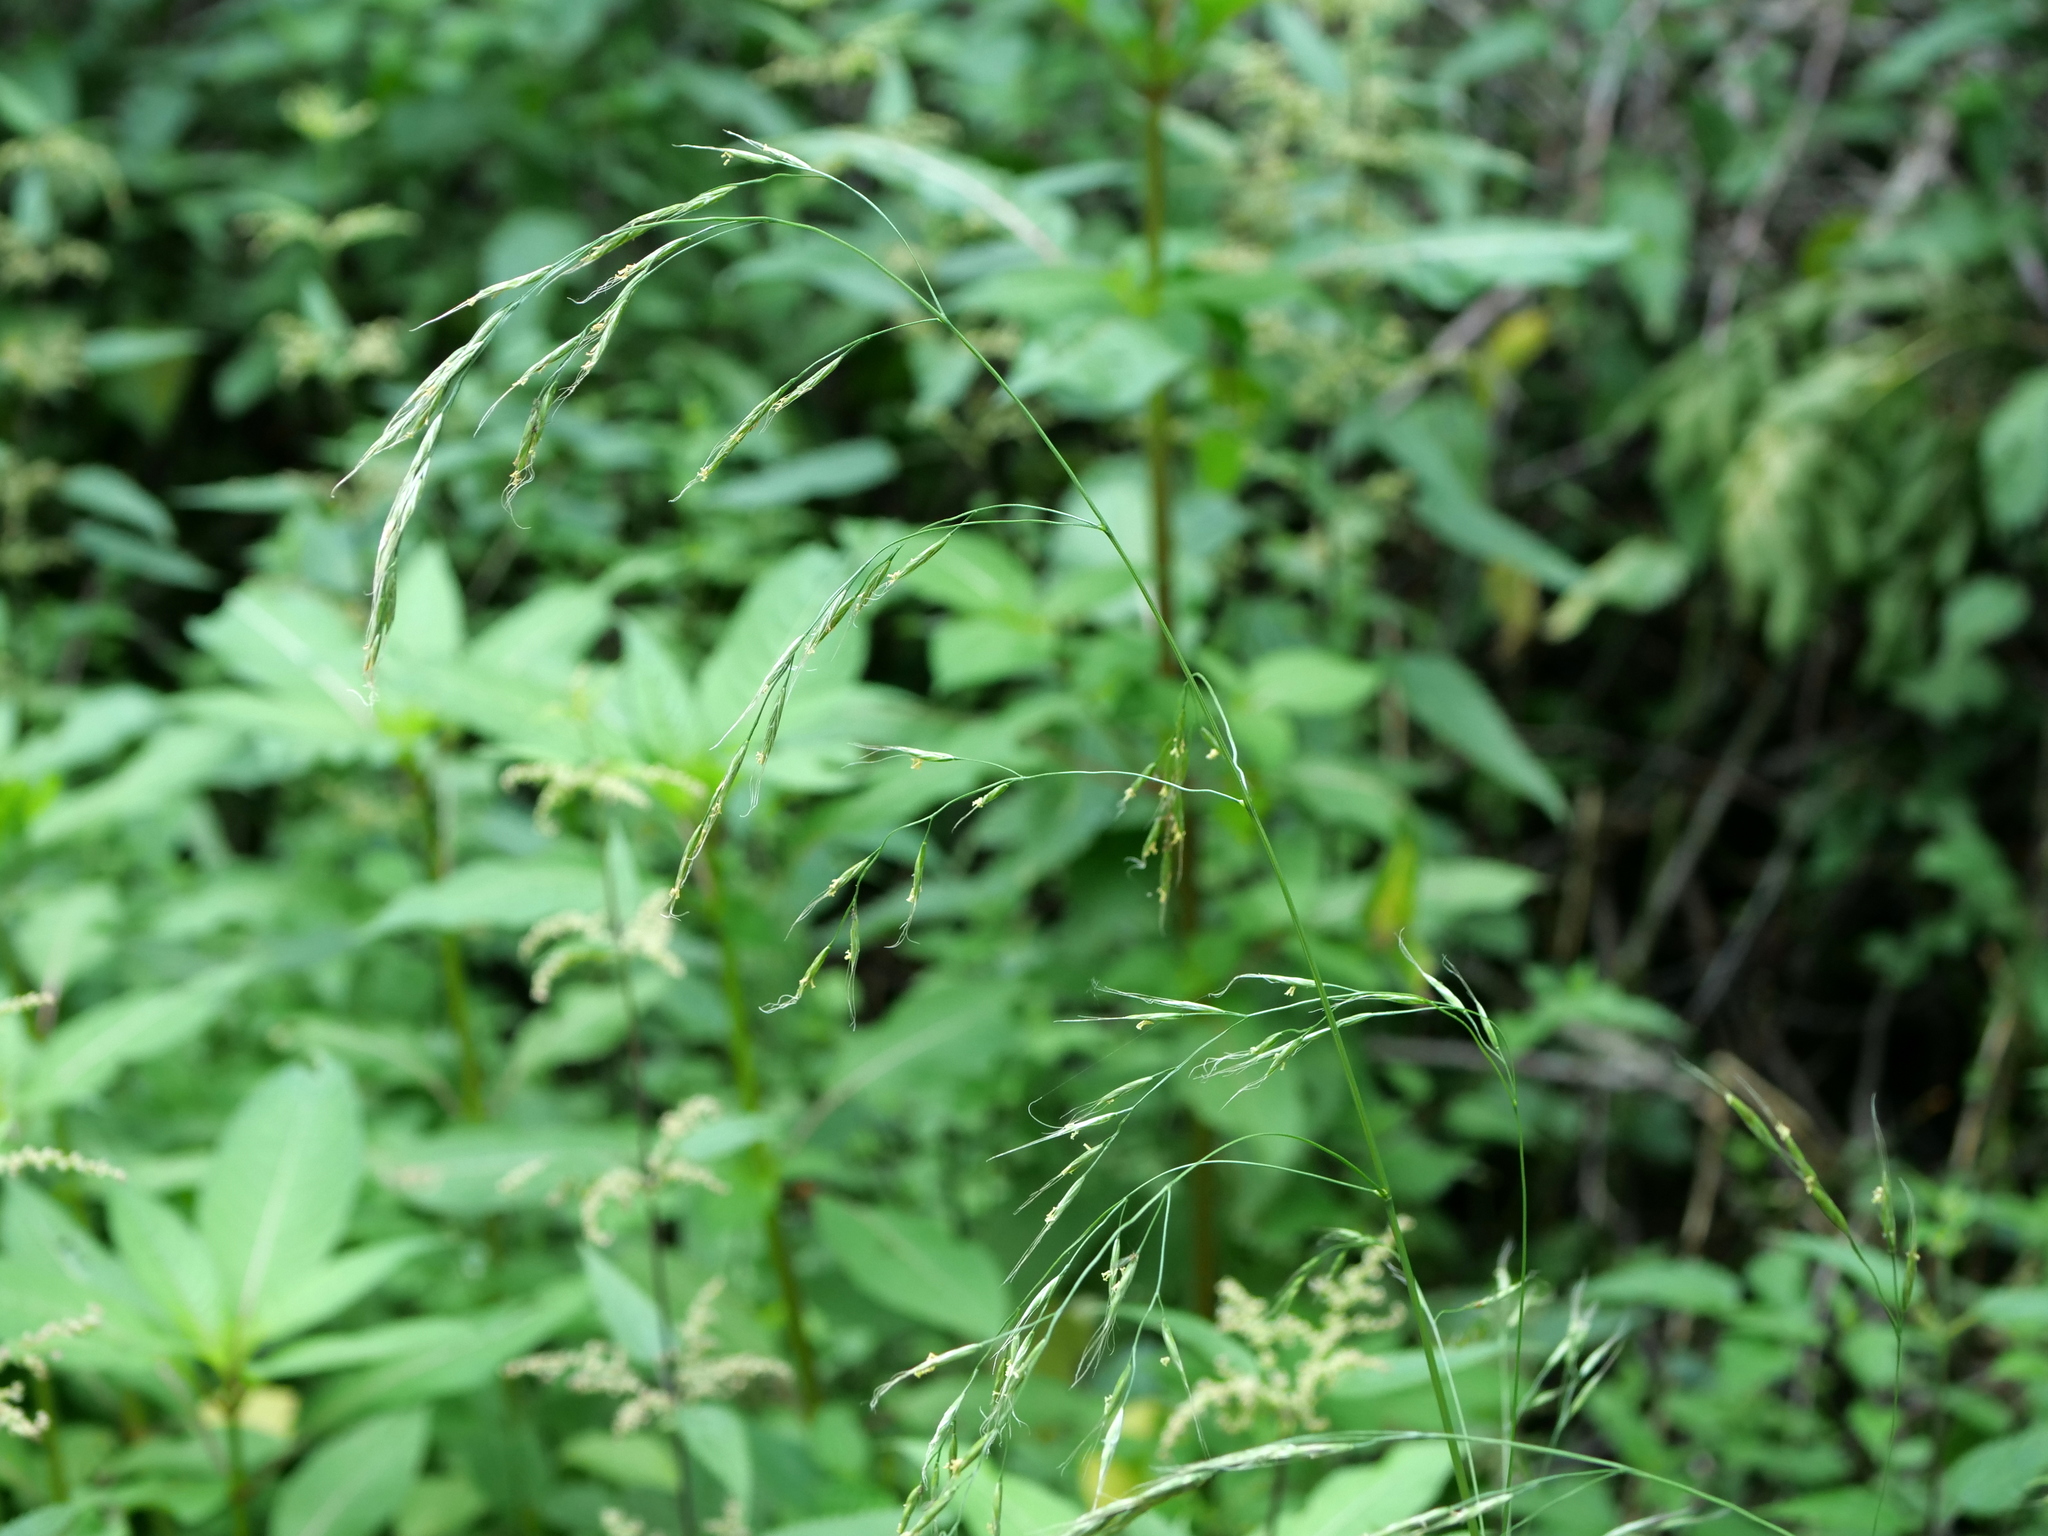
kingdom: Plantae
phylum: Tracheophyta
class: Liliopsida
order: Poales
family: Poaceae
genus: Lolium
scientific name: Lolium giganteum
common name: Giant fescue
